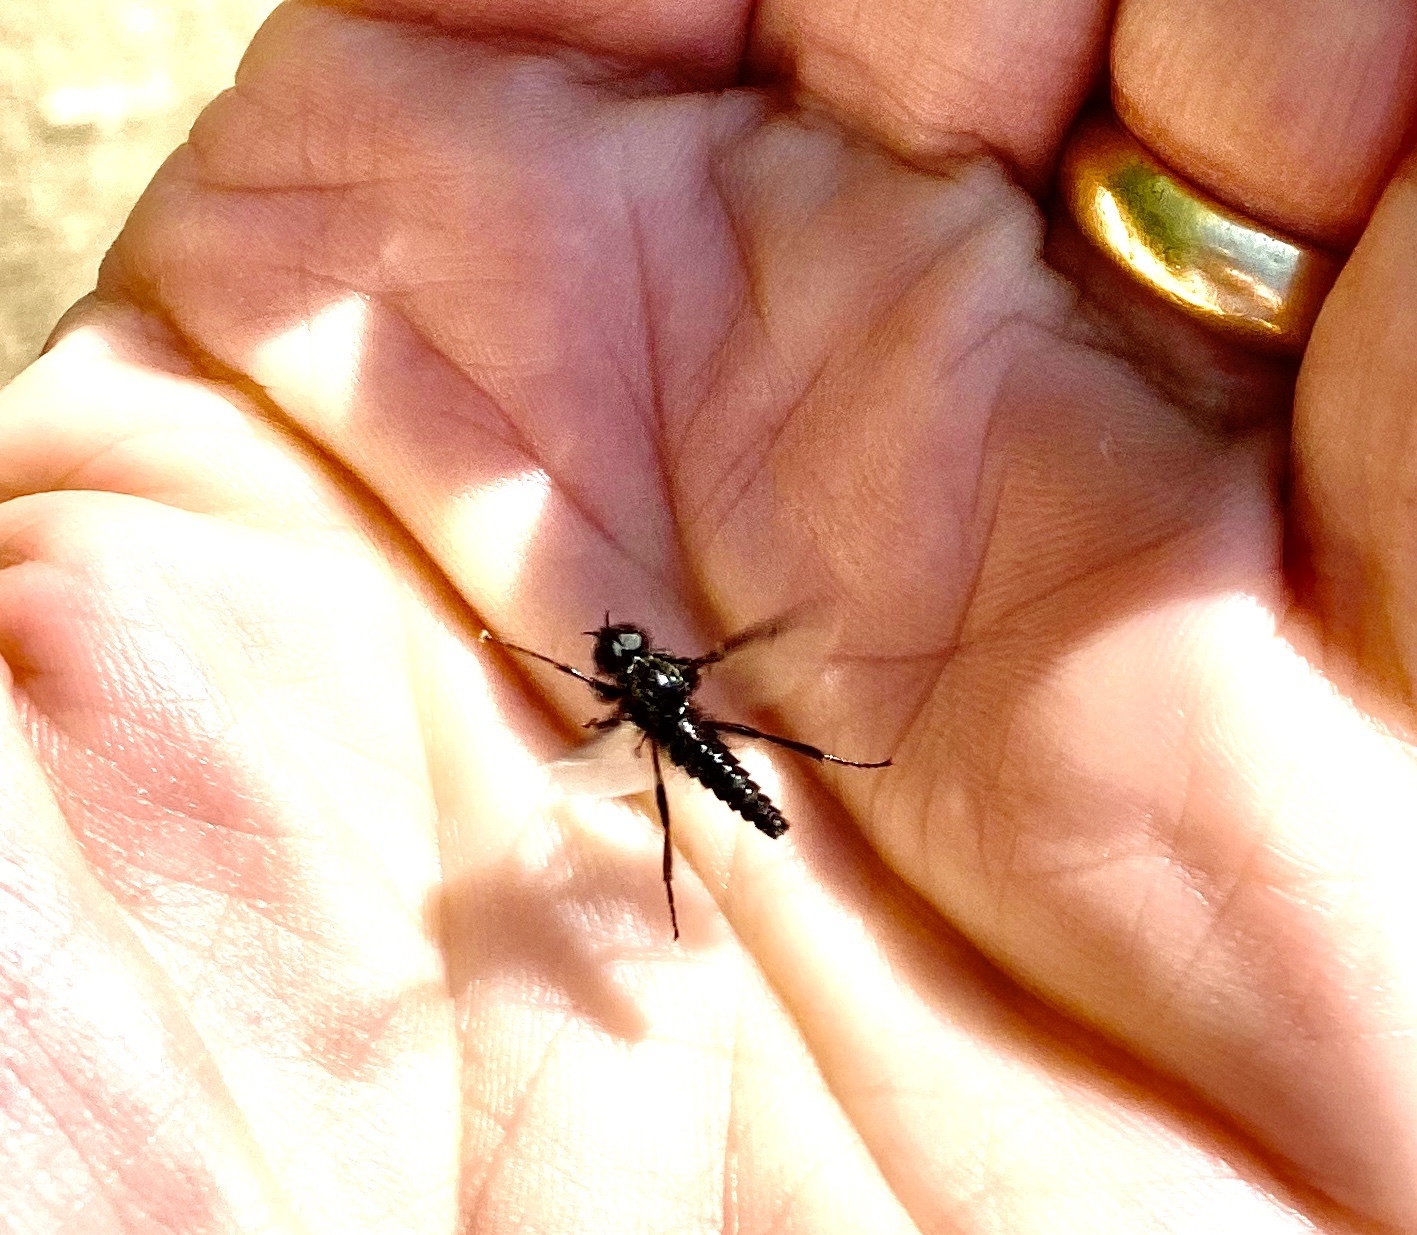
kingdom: Animalia
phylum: Arthropoda
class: Insecta
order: Diptera
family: Bibionidae
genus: Bibio
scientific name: Bibio marci
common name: St marks fly
